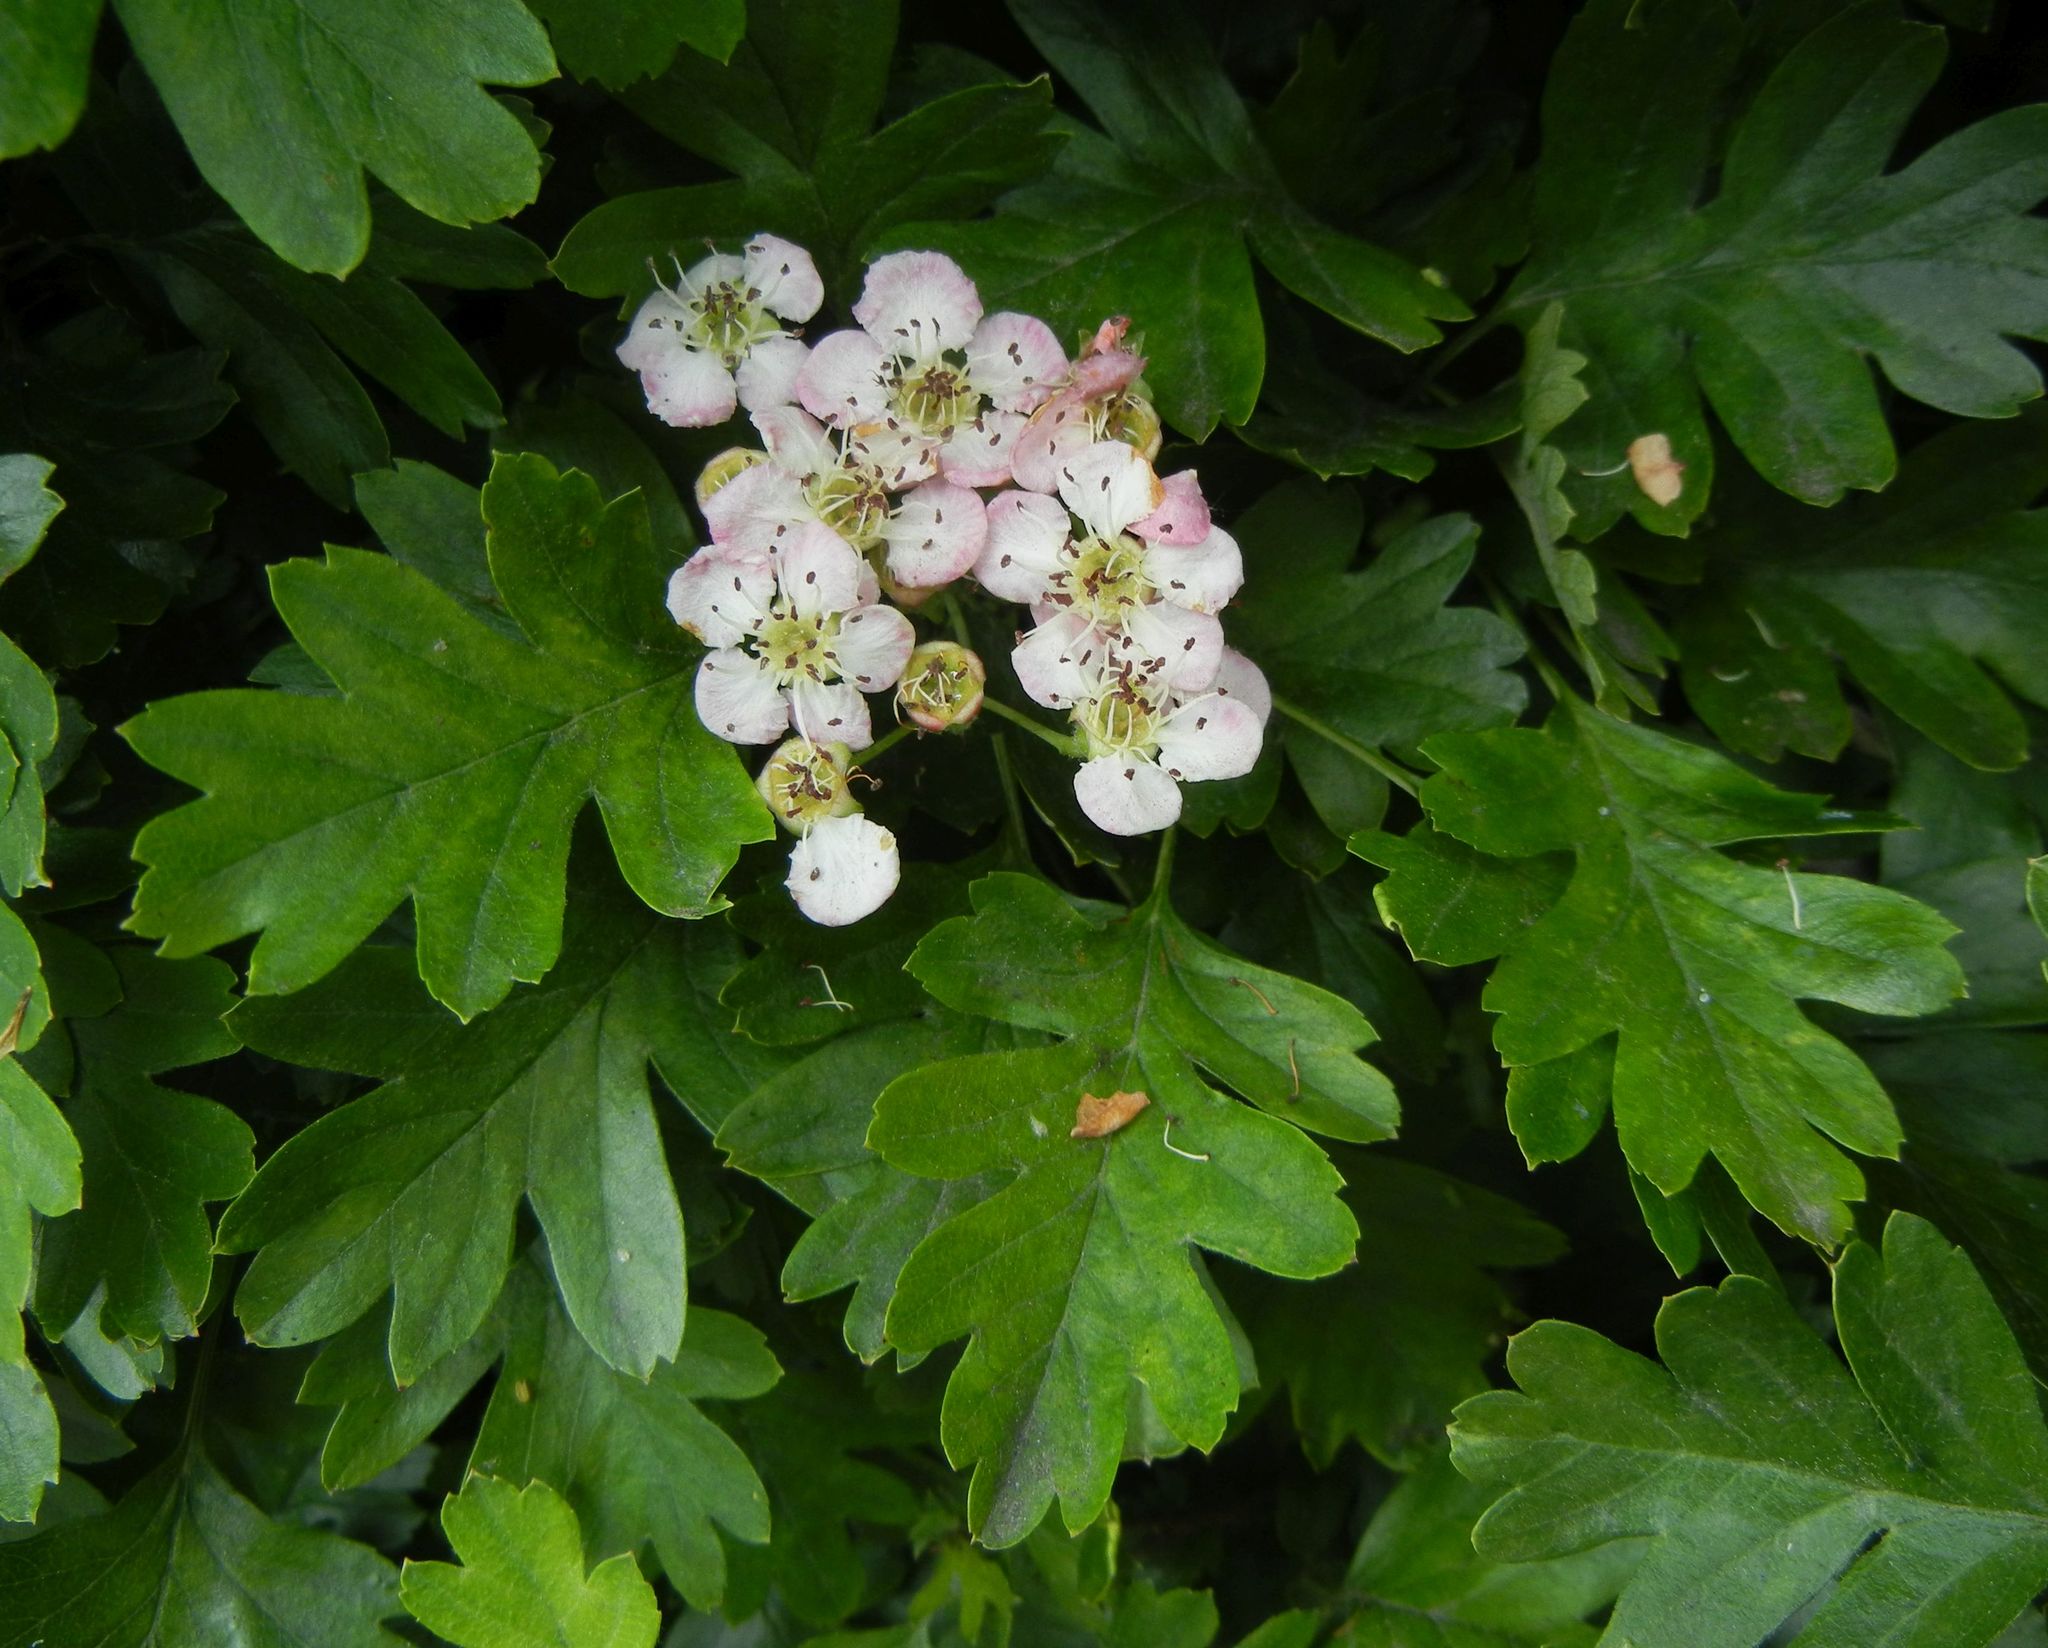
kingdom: Plantae
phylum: Tracheophyta
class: Magnoliopsida
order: Rosales
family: Rosaceae
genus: Crataegus
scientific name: Crataegus monogyna
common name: Hawthorn
